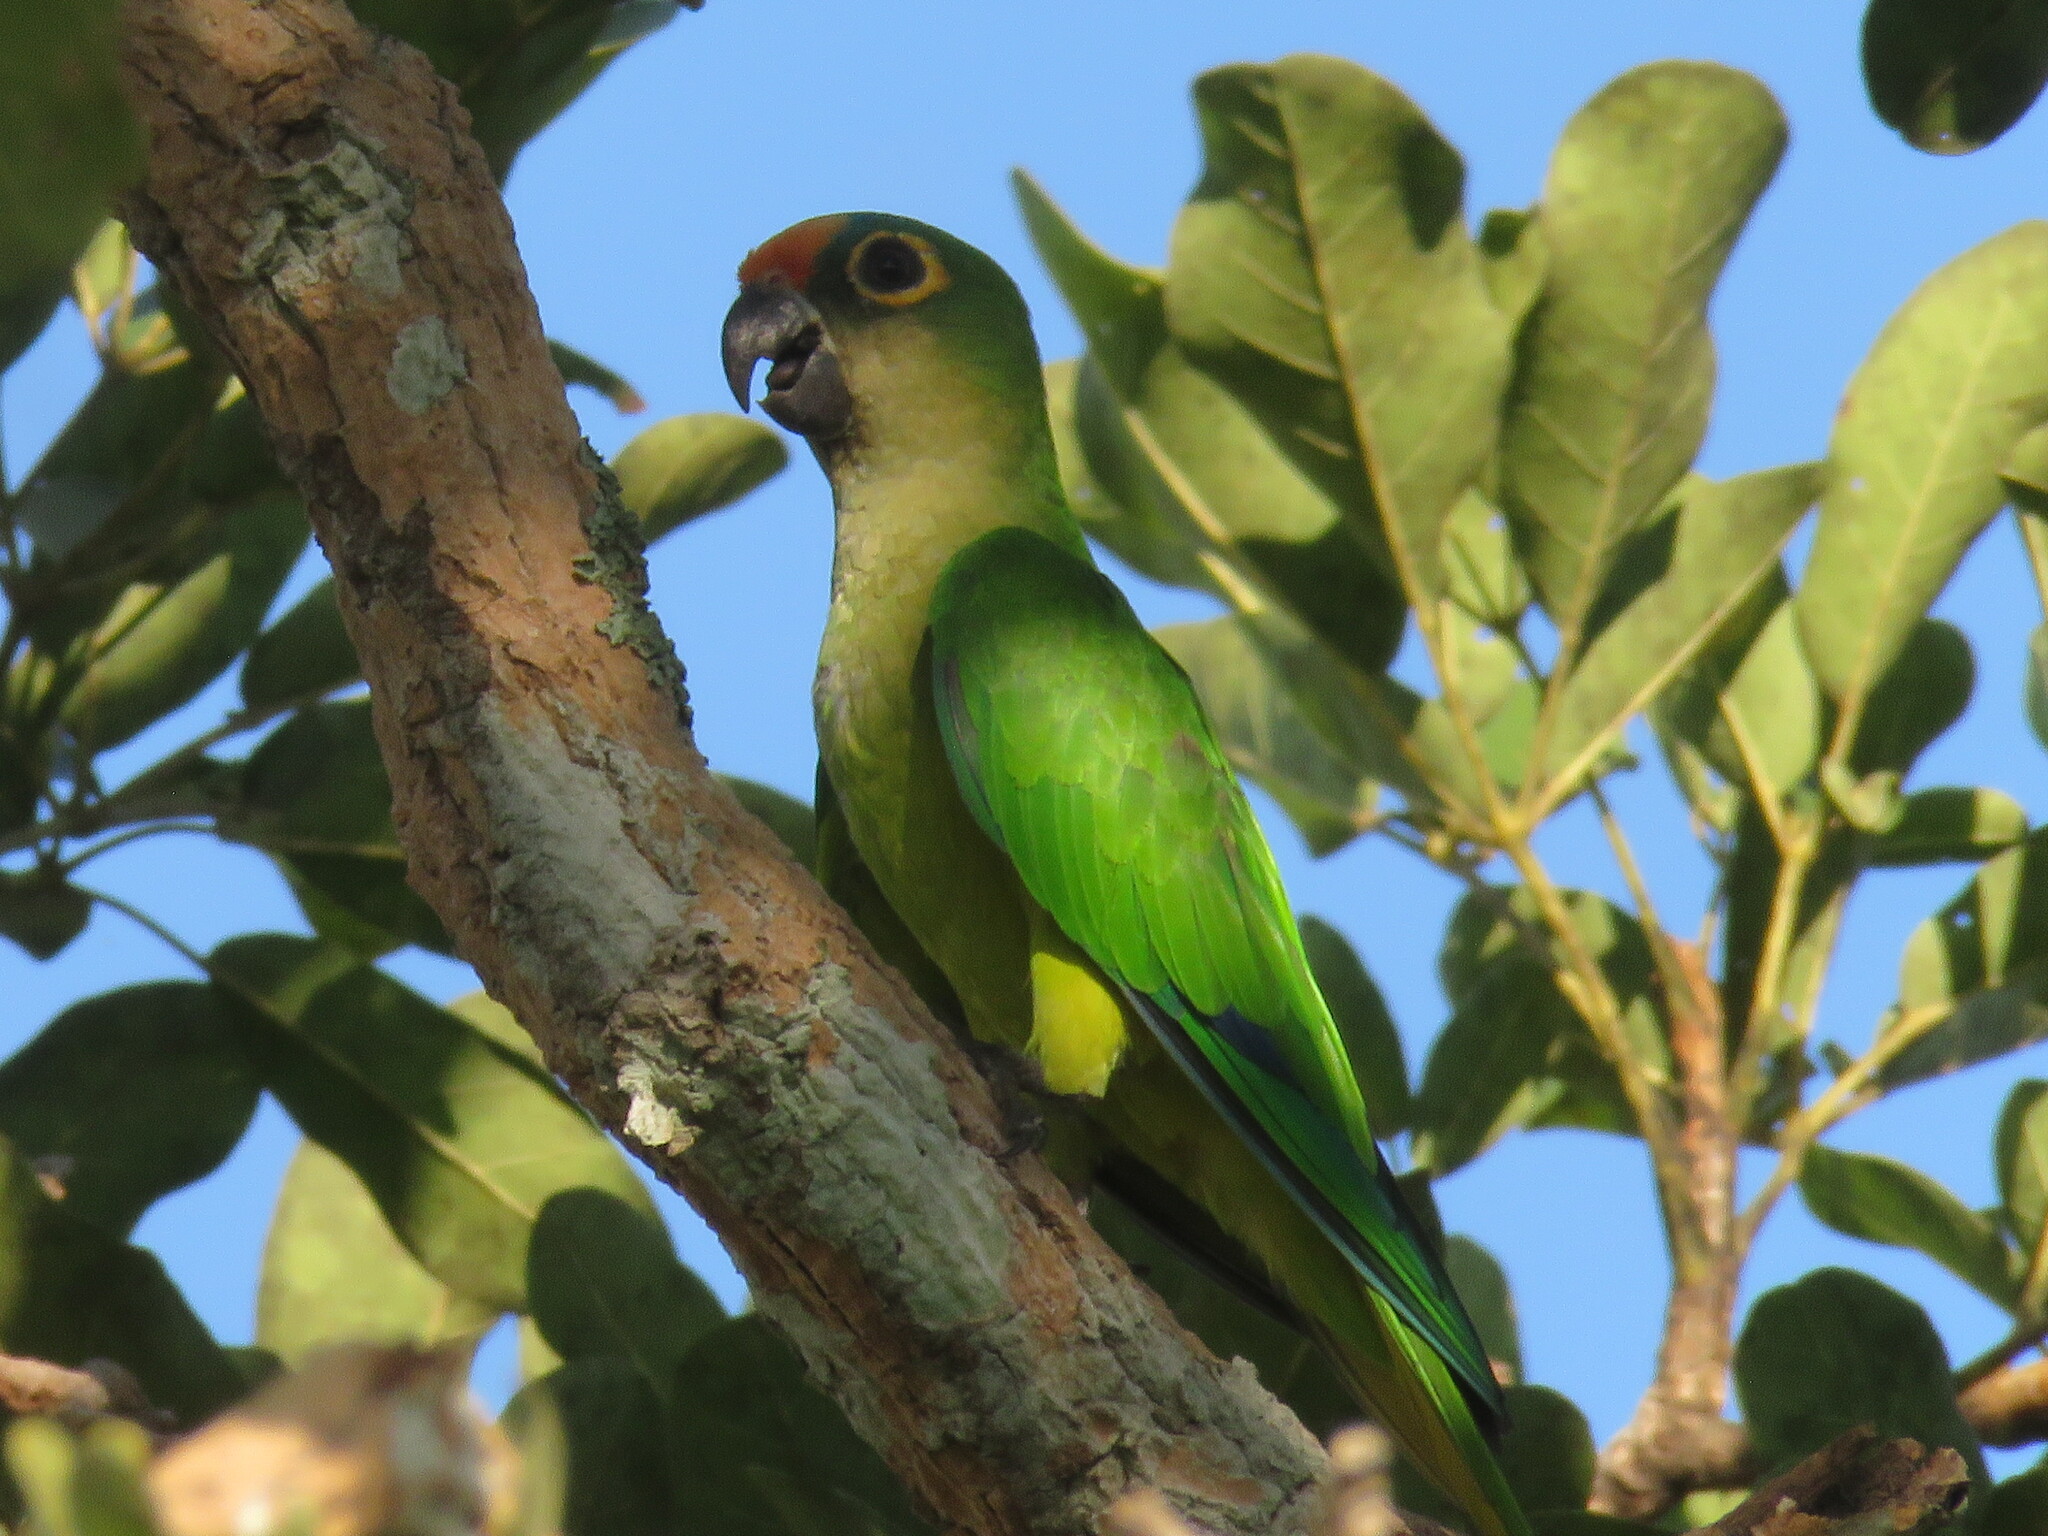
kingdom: Animalia
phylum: Chordata
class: Aves
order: Psittaciformes
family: Psittacidae
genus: Aratinga
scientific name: Aratinga aurea
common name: Peach-fronted parakeet
